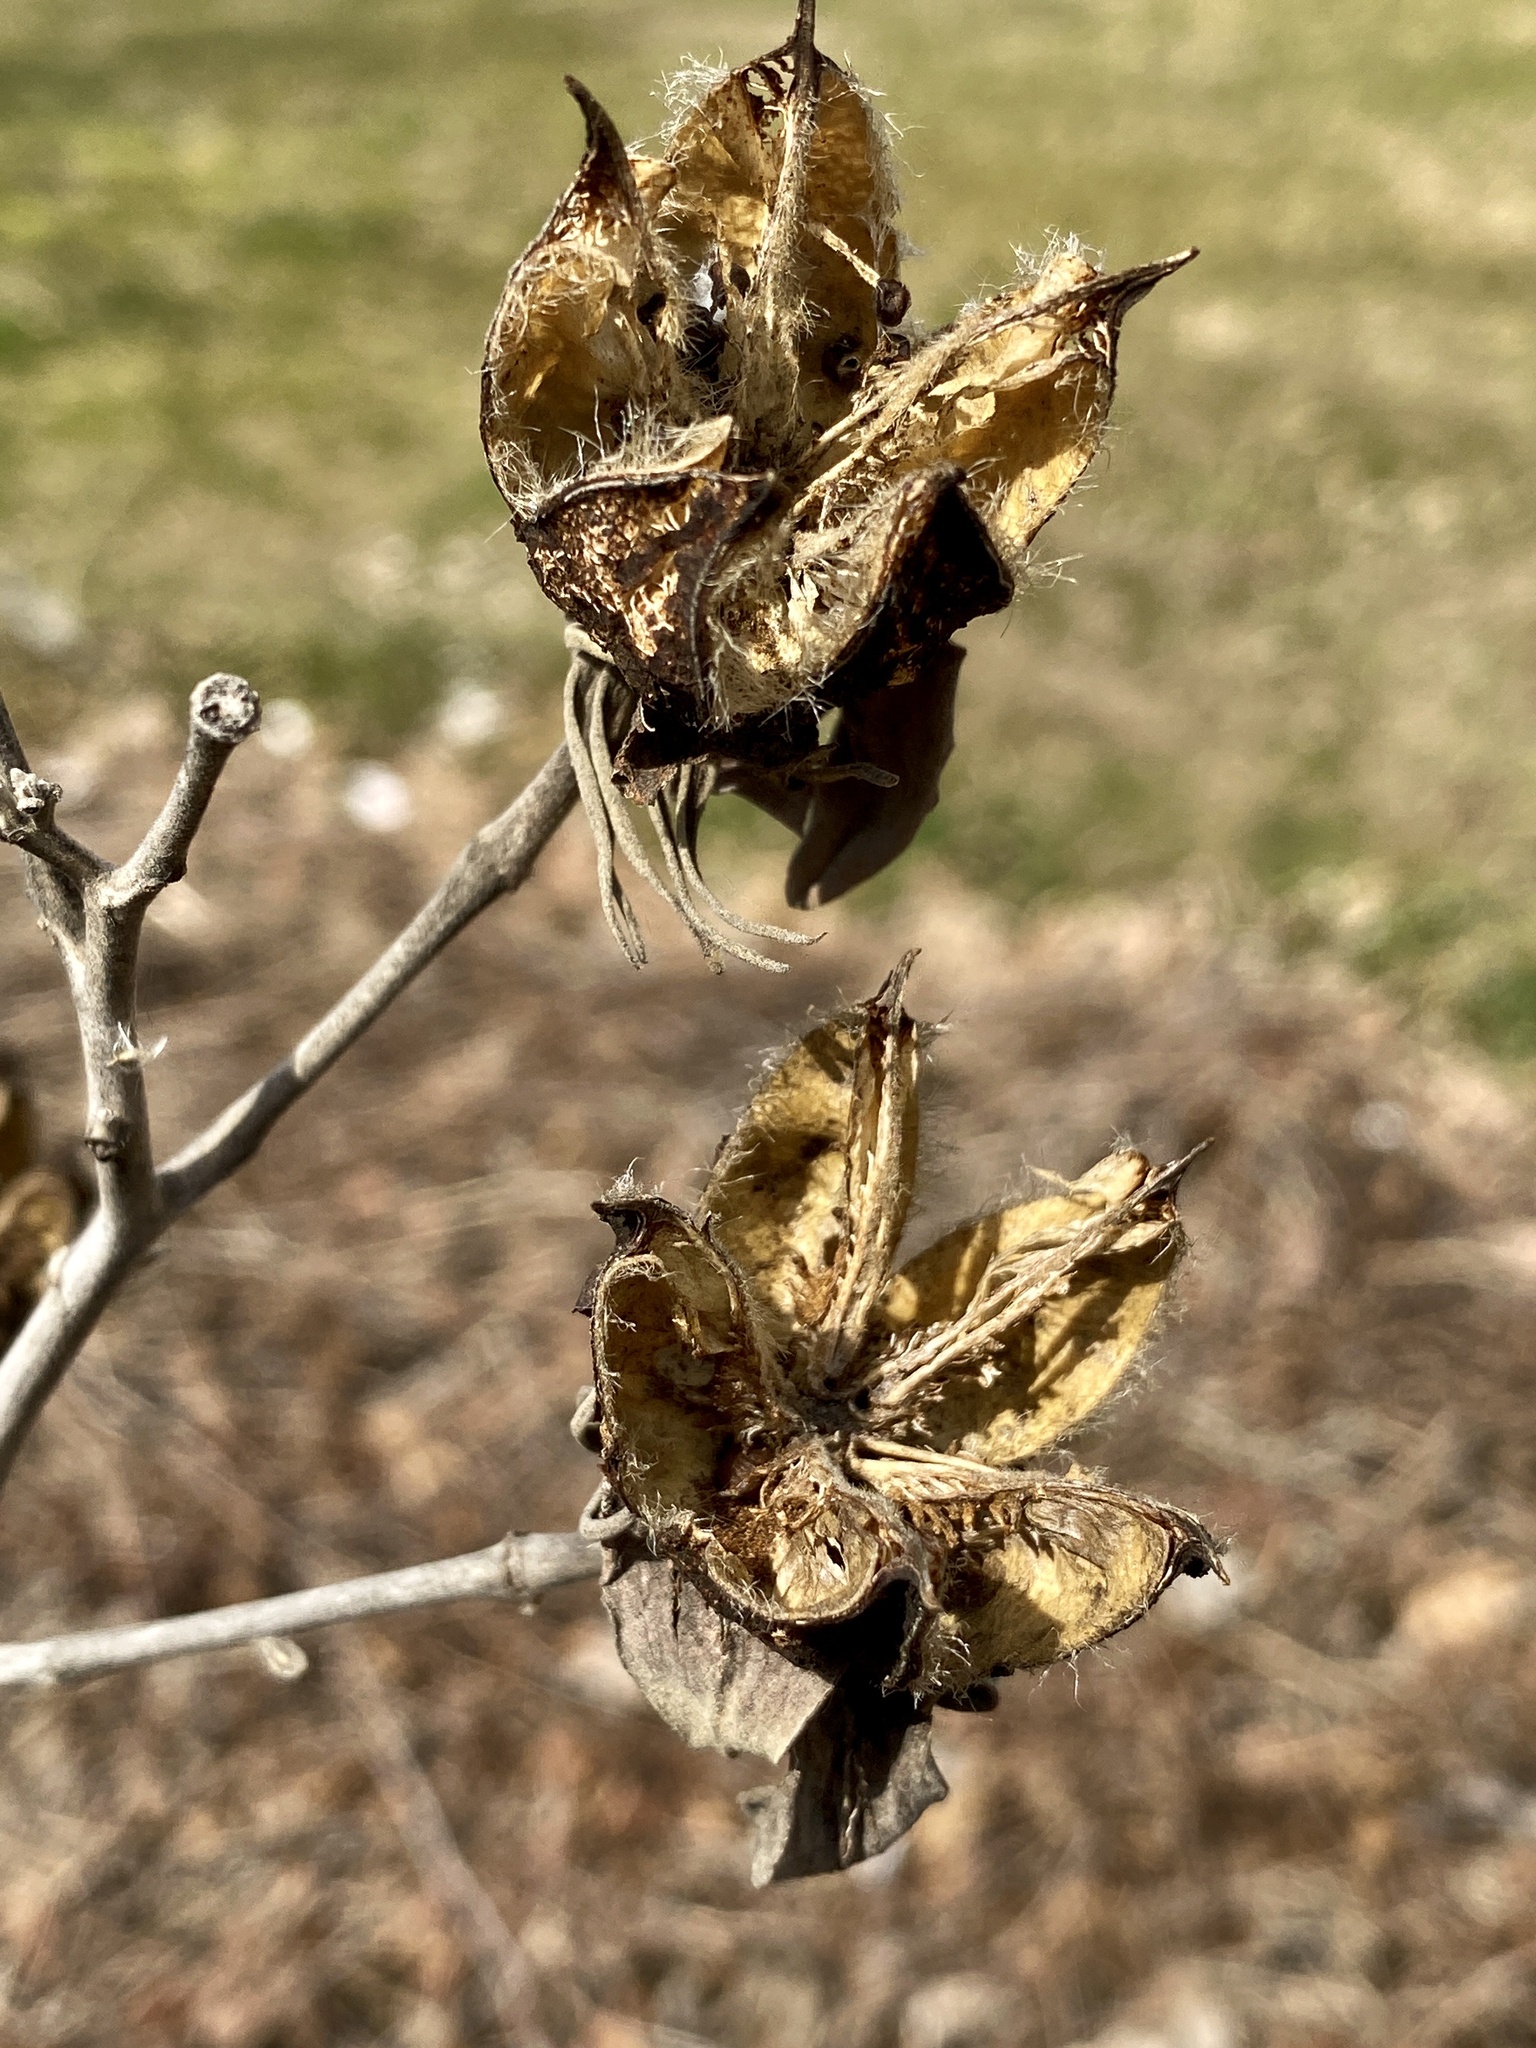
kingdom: Plantae
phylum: Tracheophyta
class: Magnoliopsida
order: Malvales
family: Malvaceae
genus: Hibiscus
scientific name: Hibiscus moscheutos
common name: Common rose-mallow
